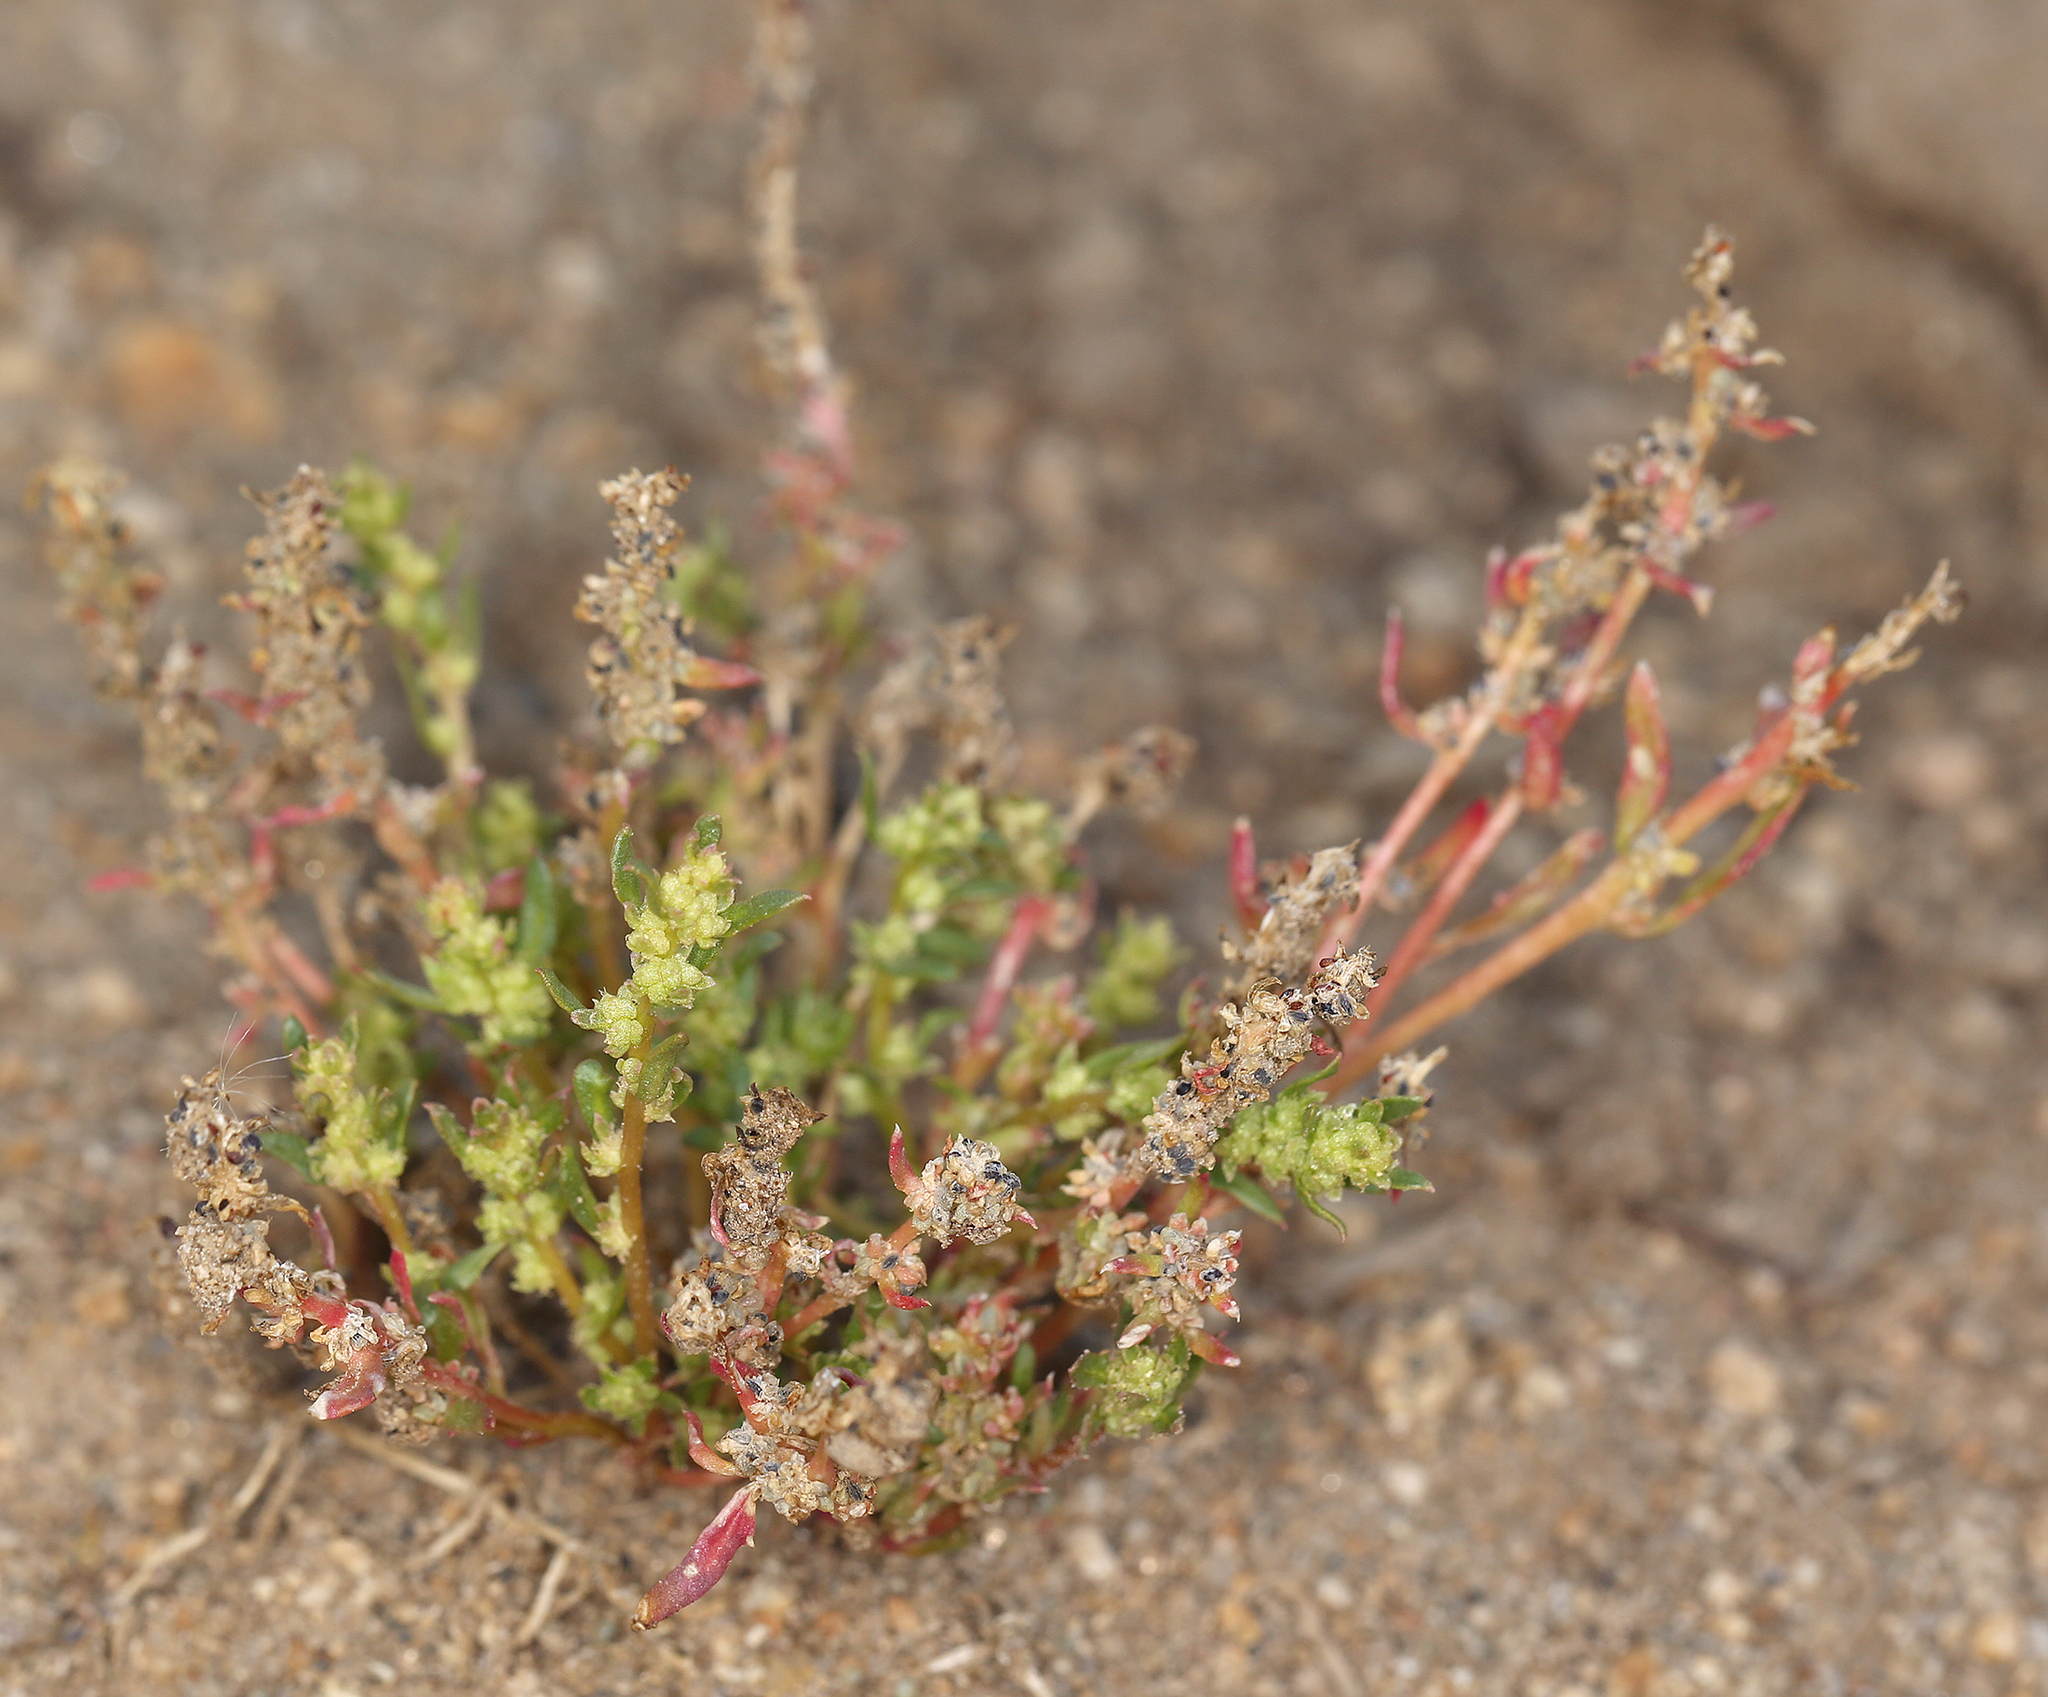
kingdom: Plantae
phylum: Tracheophyta
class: Magnoliopsida
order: Caryophyllales
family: Amaranthaceae
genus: Blitum
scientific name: Blitum nuttallianum
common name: Poverty-weed
